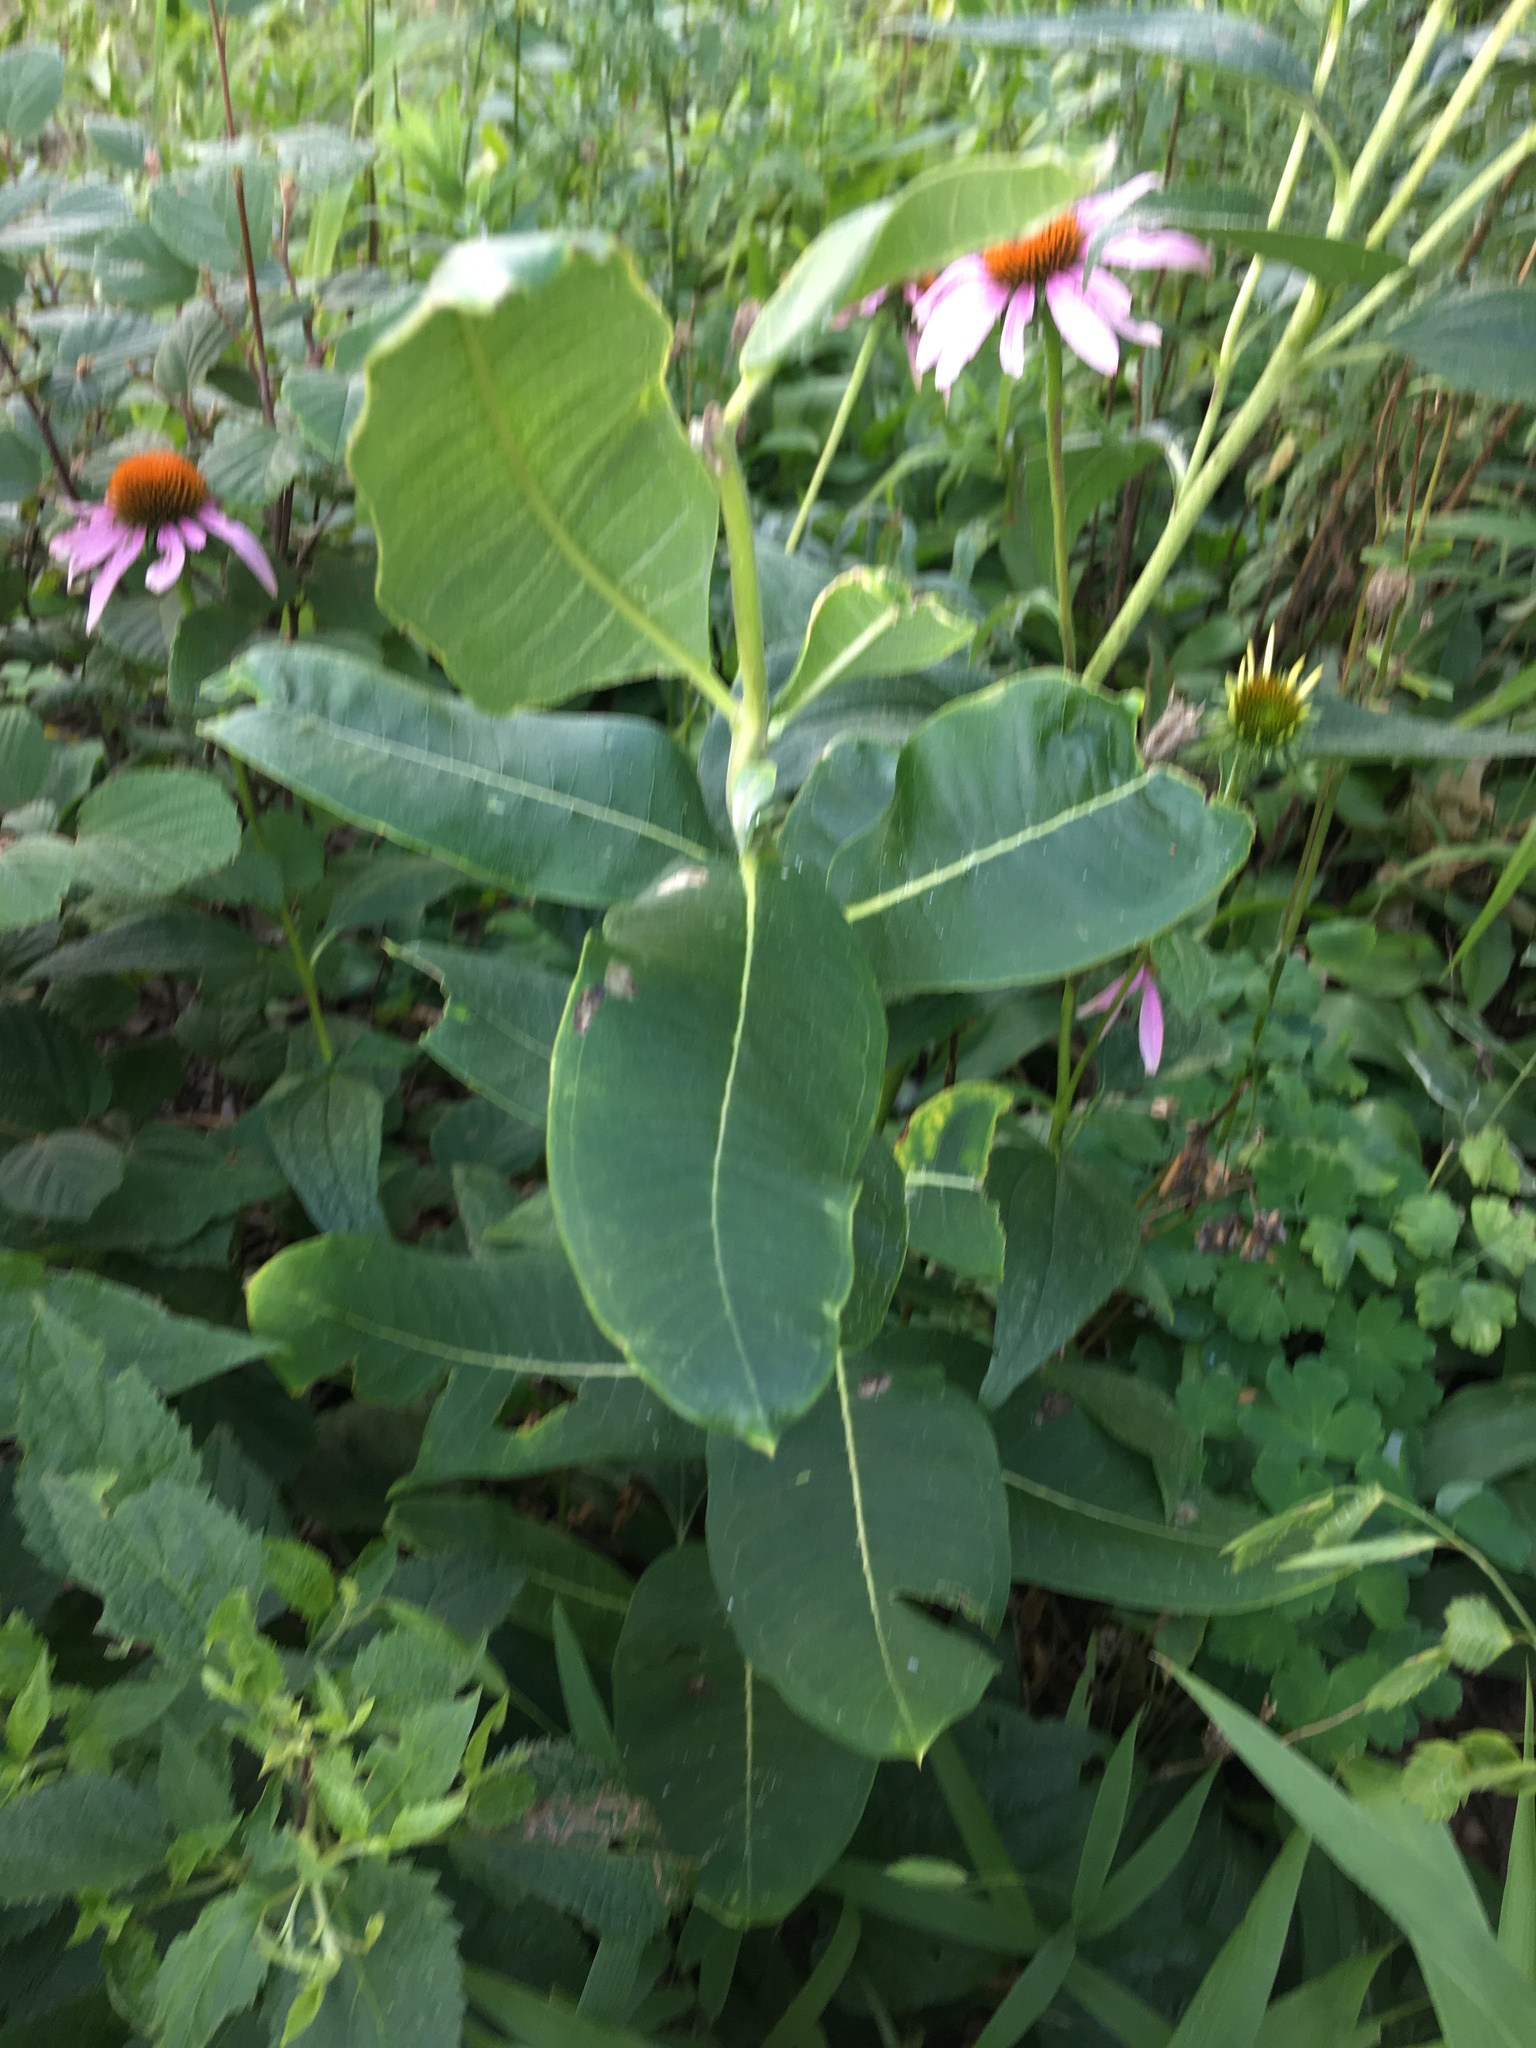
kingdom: Plantae
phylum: Tracheophyta
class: Magnoliopsida
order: Gentianales
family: Apocynaceae
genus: Asclepias
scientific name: Asclepias syriaca
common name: Common milkweed
